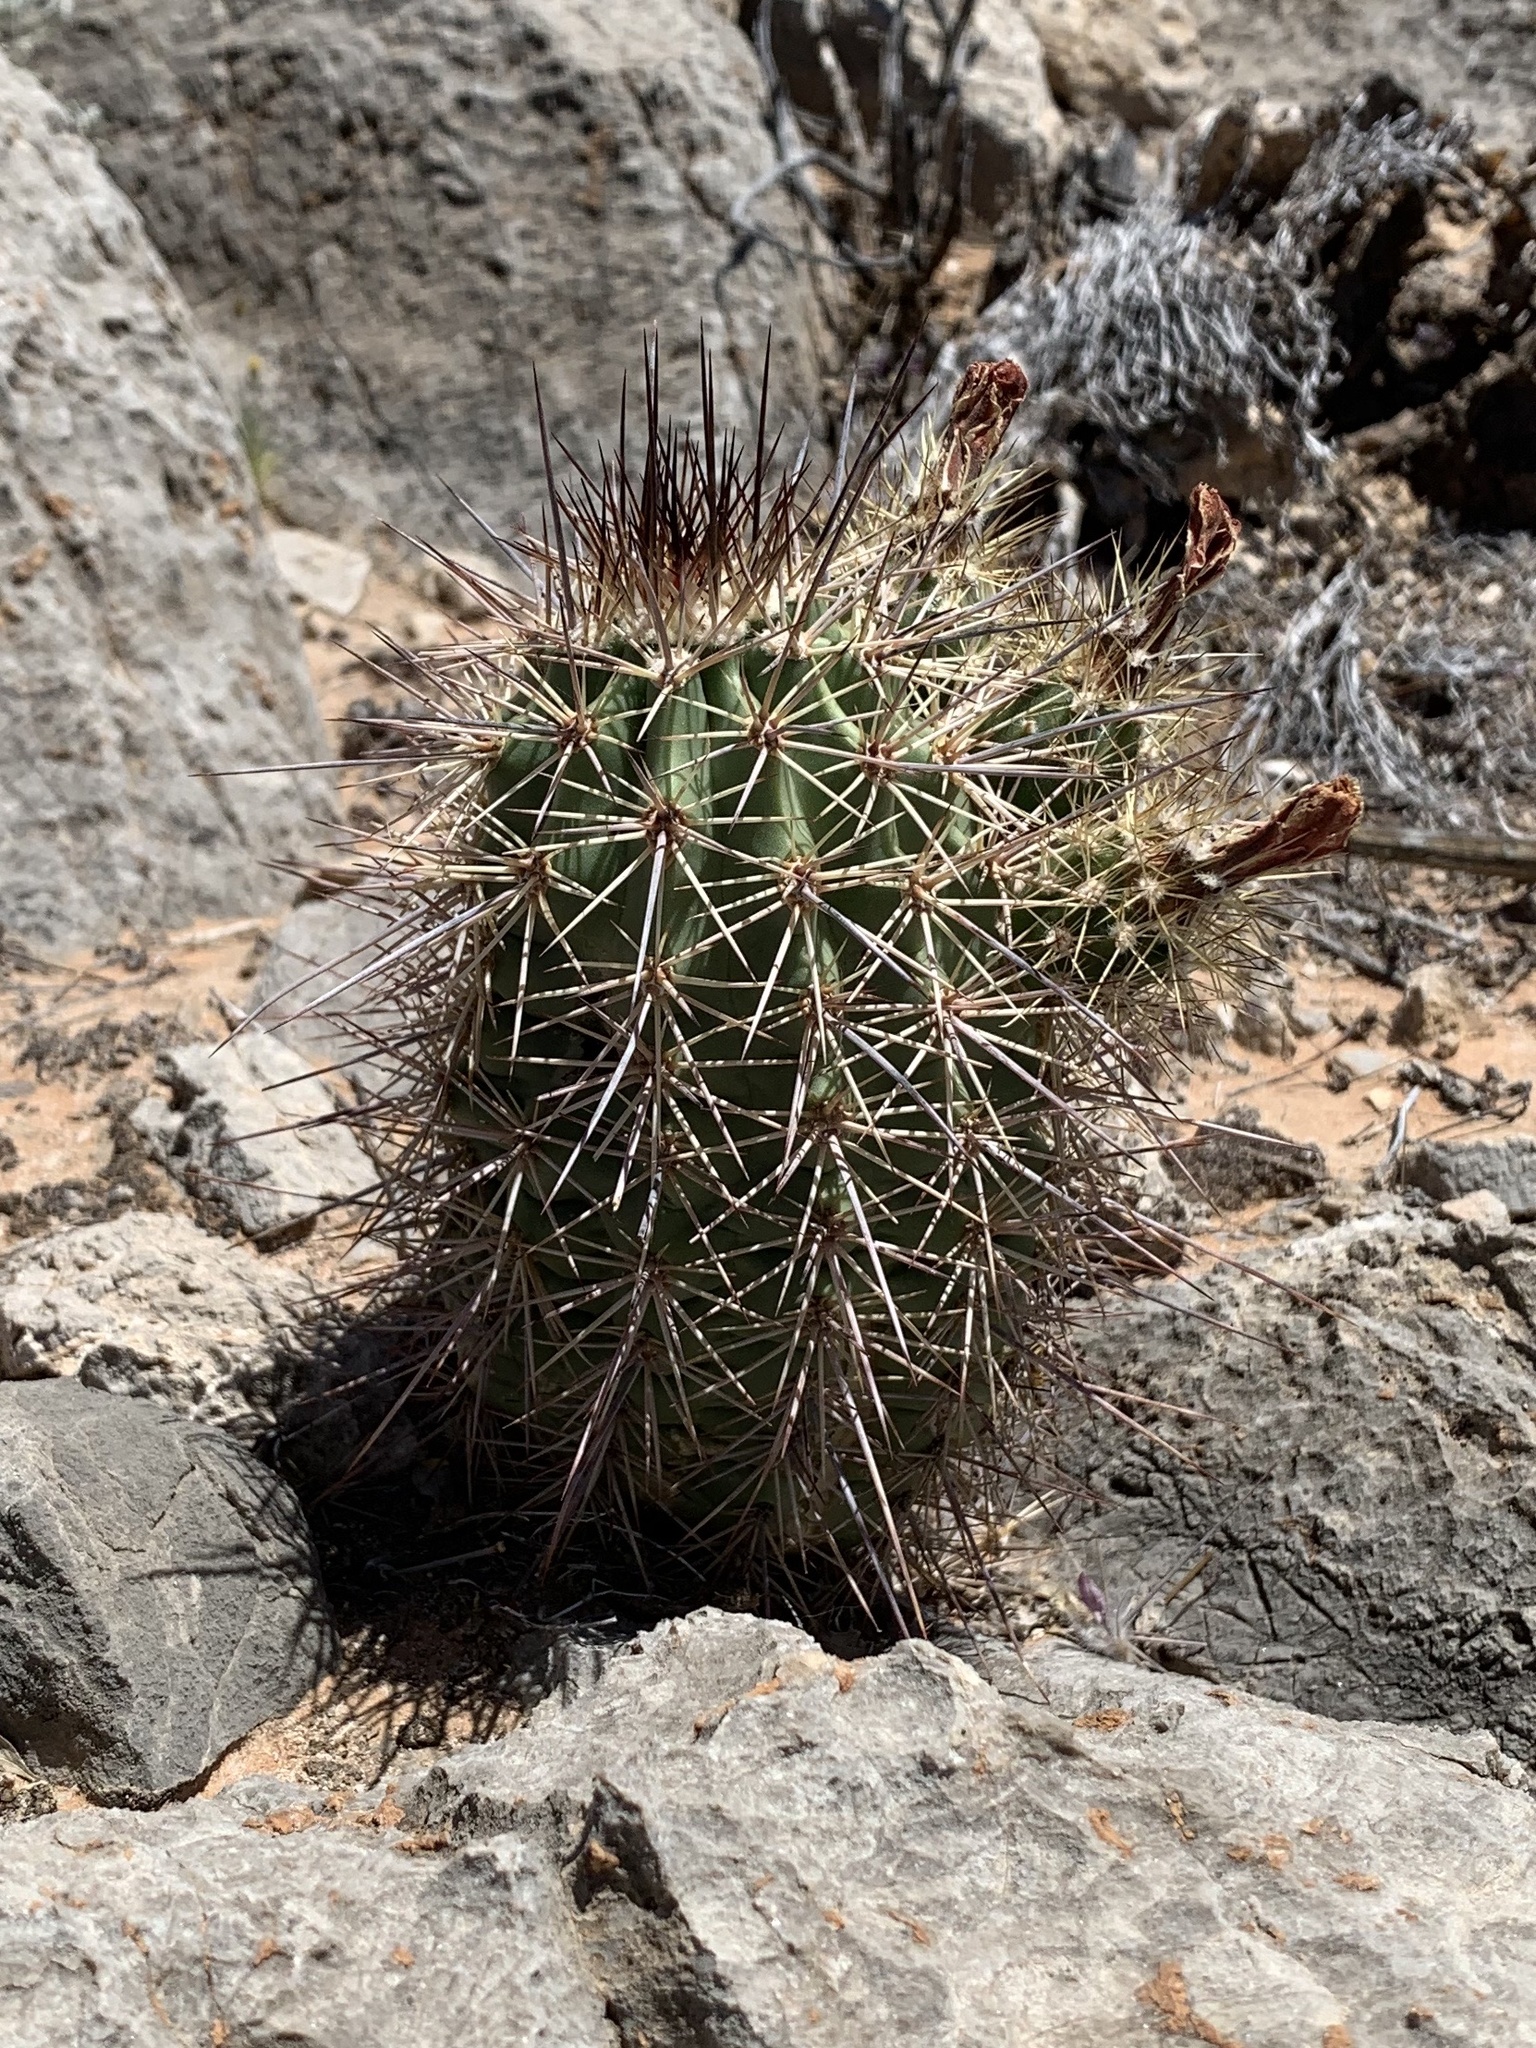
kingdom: Plantae
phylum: Tracheophyta
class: Magnoliopsida
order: Caryophyllales
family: Cactaceae
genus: Echinocereus
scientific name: Echinocereus coccineus
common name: Scarlet hedgehog cactus
